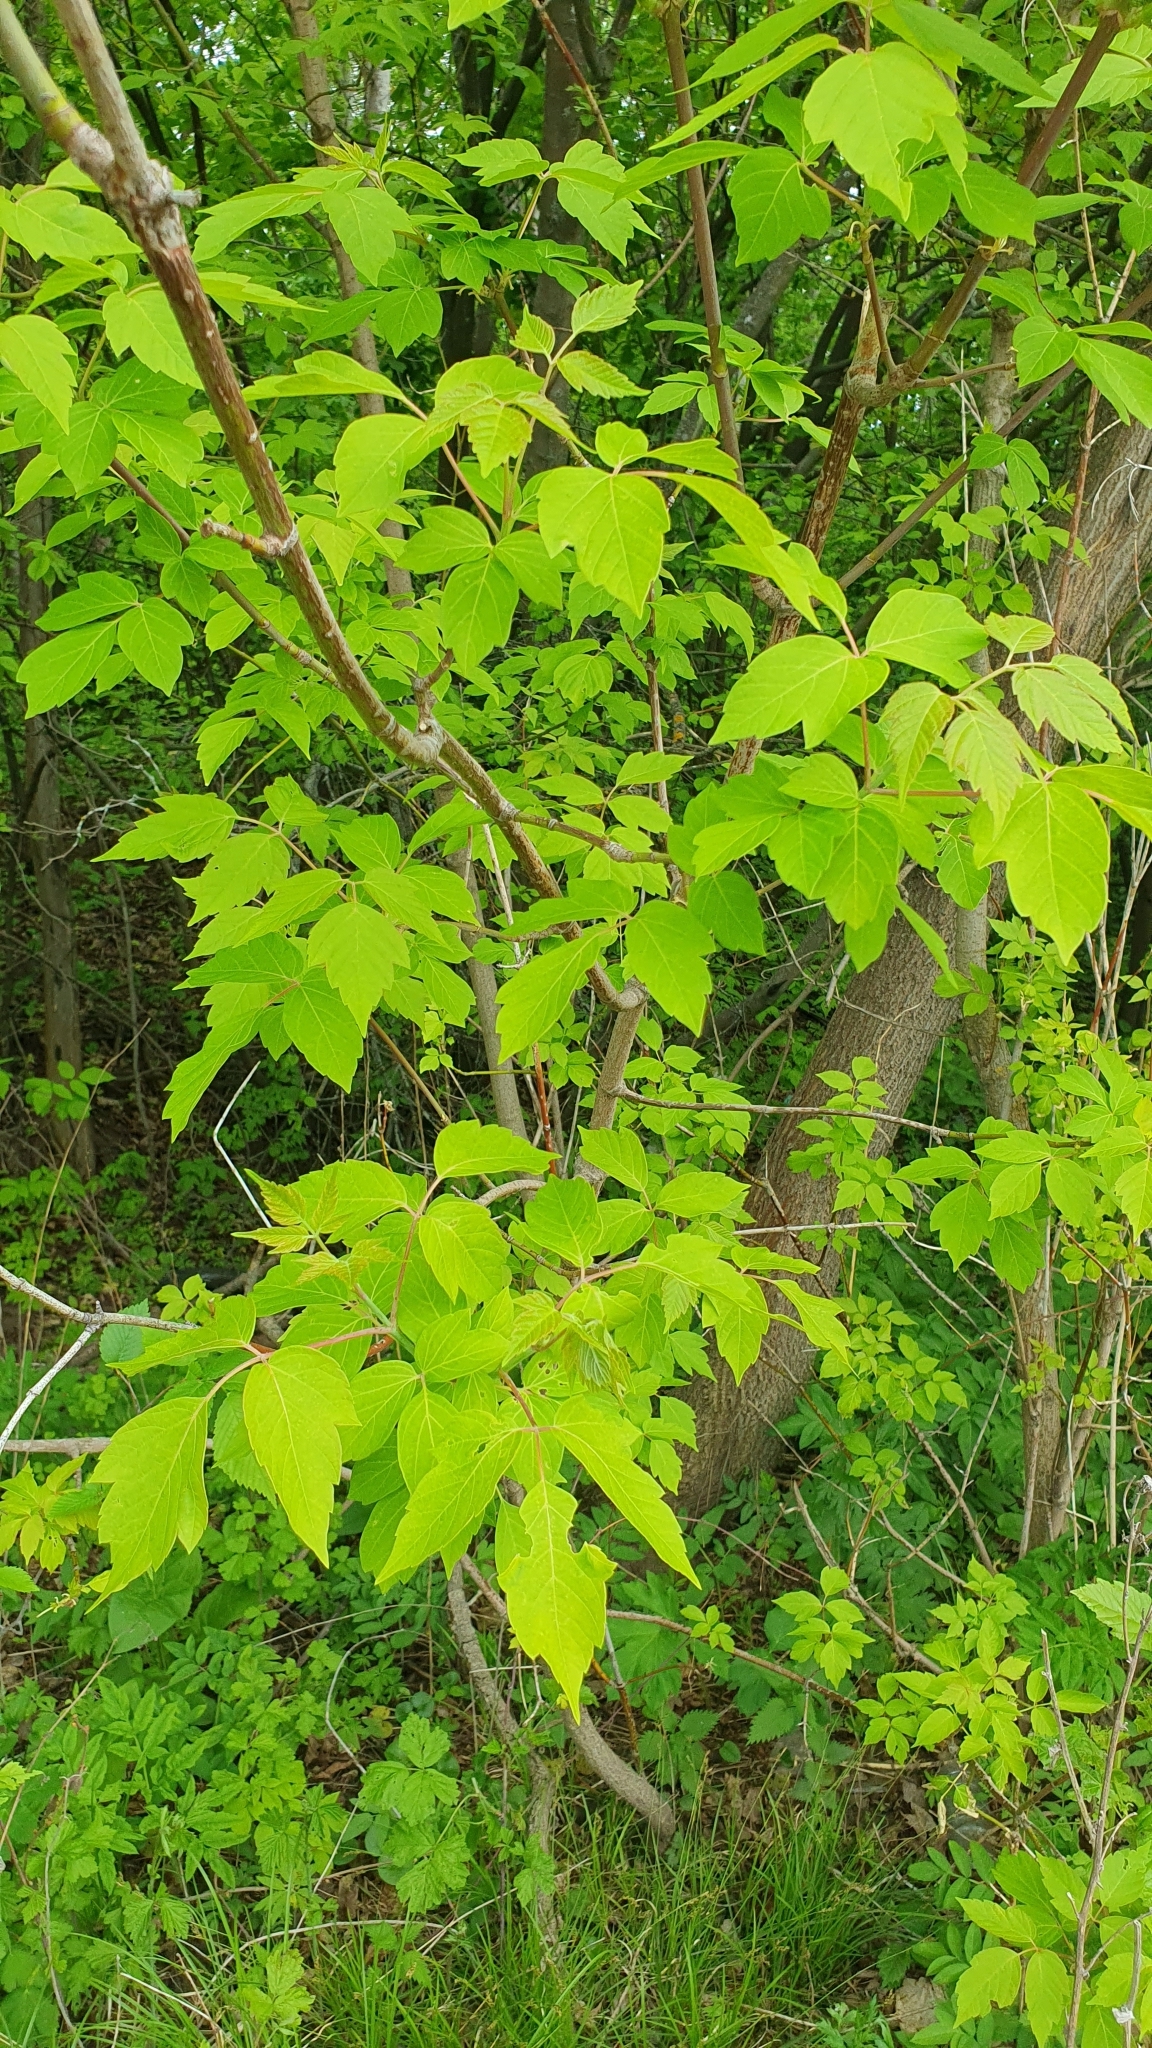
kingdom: Plantae
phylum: Tracheophyta
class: Magnoliopsida
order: Sapindales
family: Sapindaceae
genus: Acer
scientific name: Acer negundo
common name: Ashleaf maple
